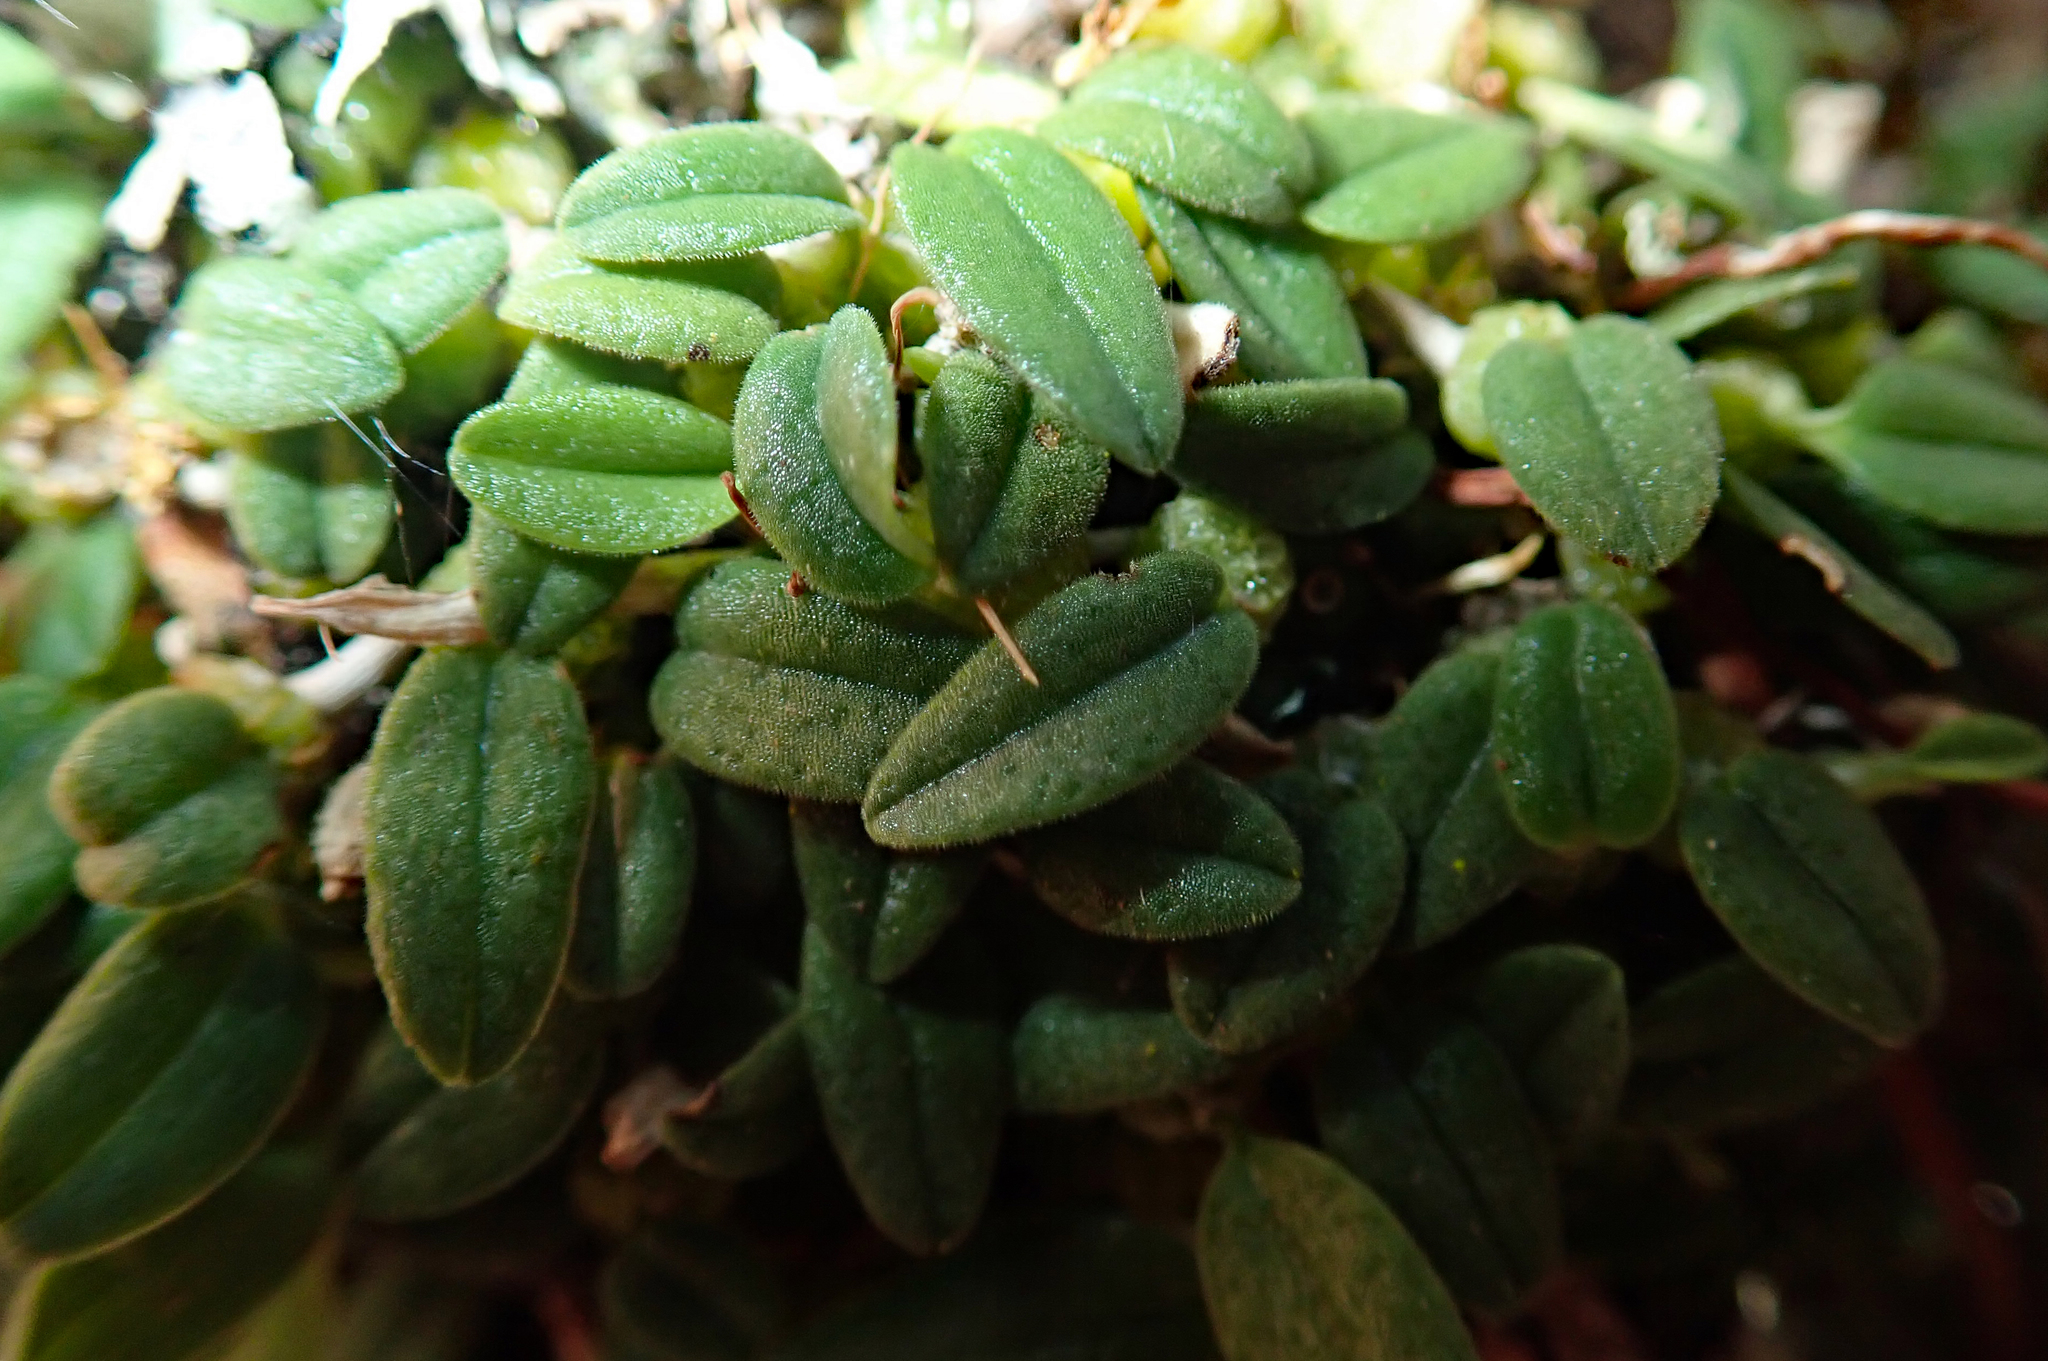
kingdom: Plantae
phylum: Tracheophyta
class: Liliopsida
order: Asparagales
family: Orchidaceae
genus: Bulbophyllum
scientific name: Bulbophyllum pygmaeum
